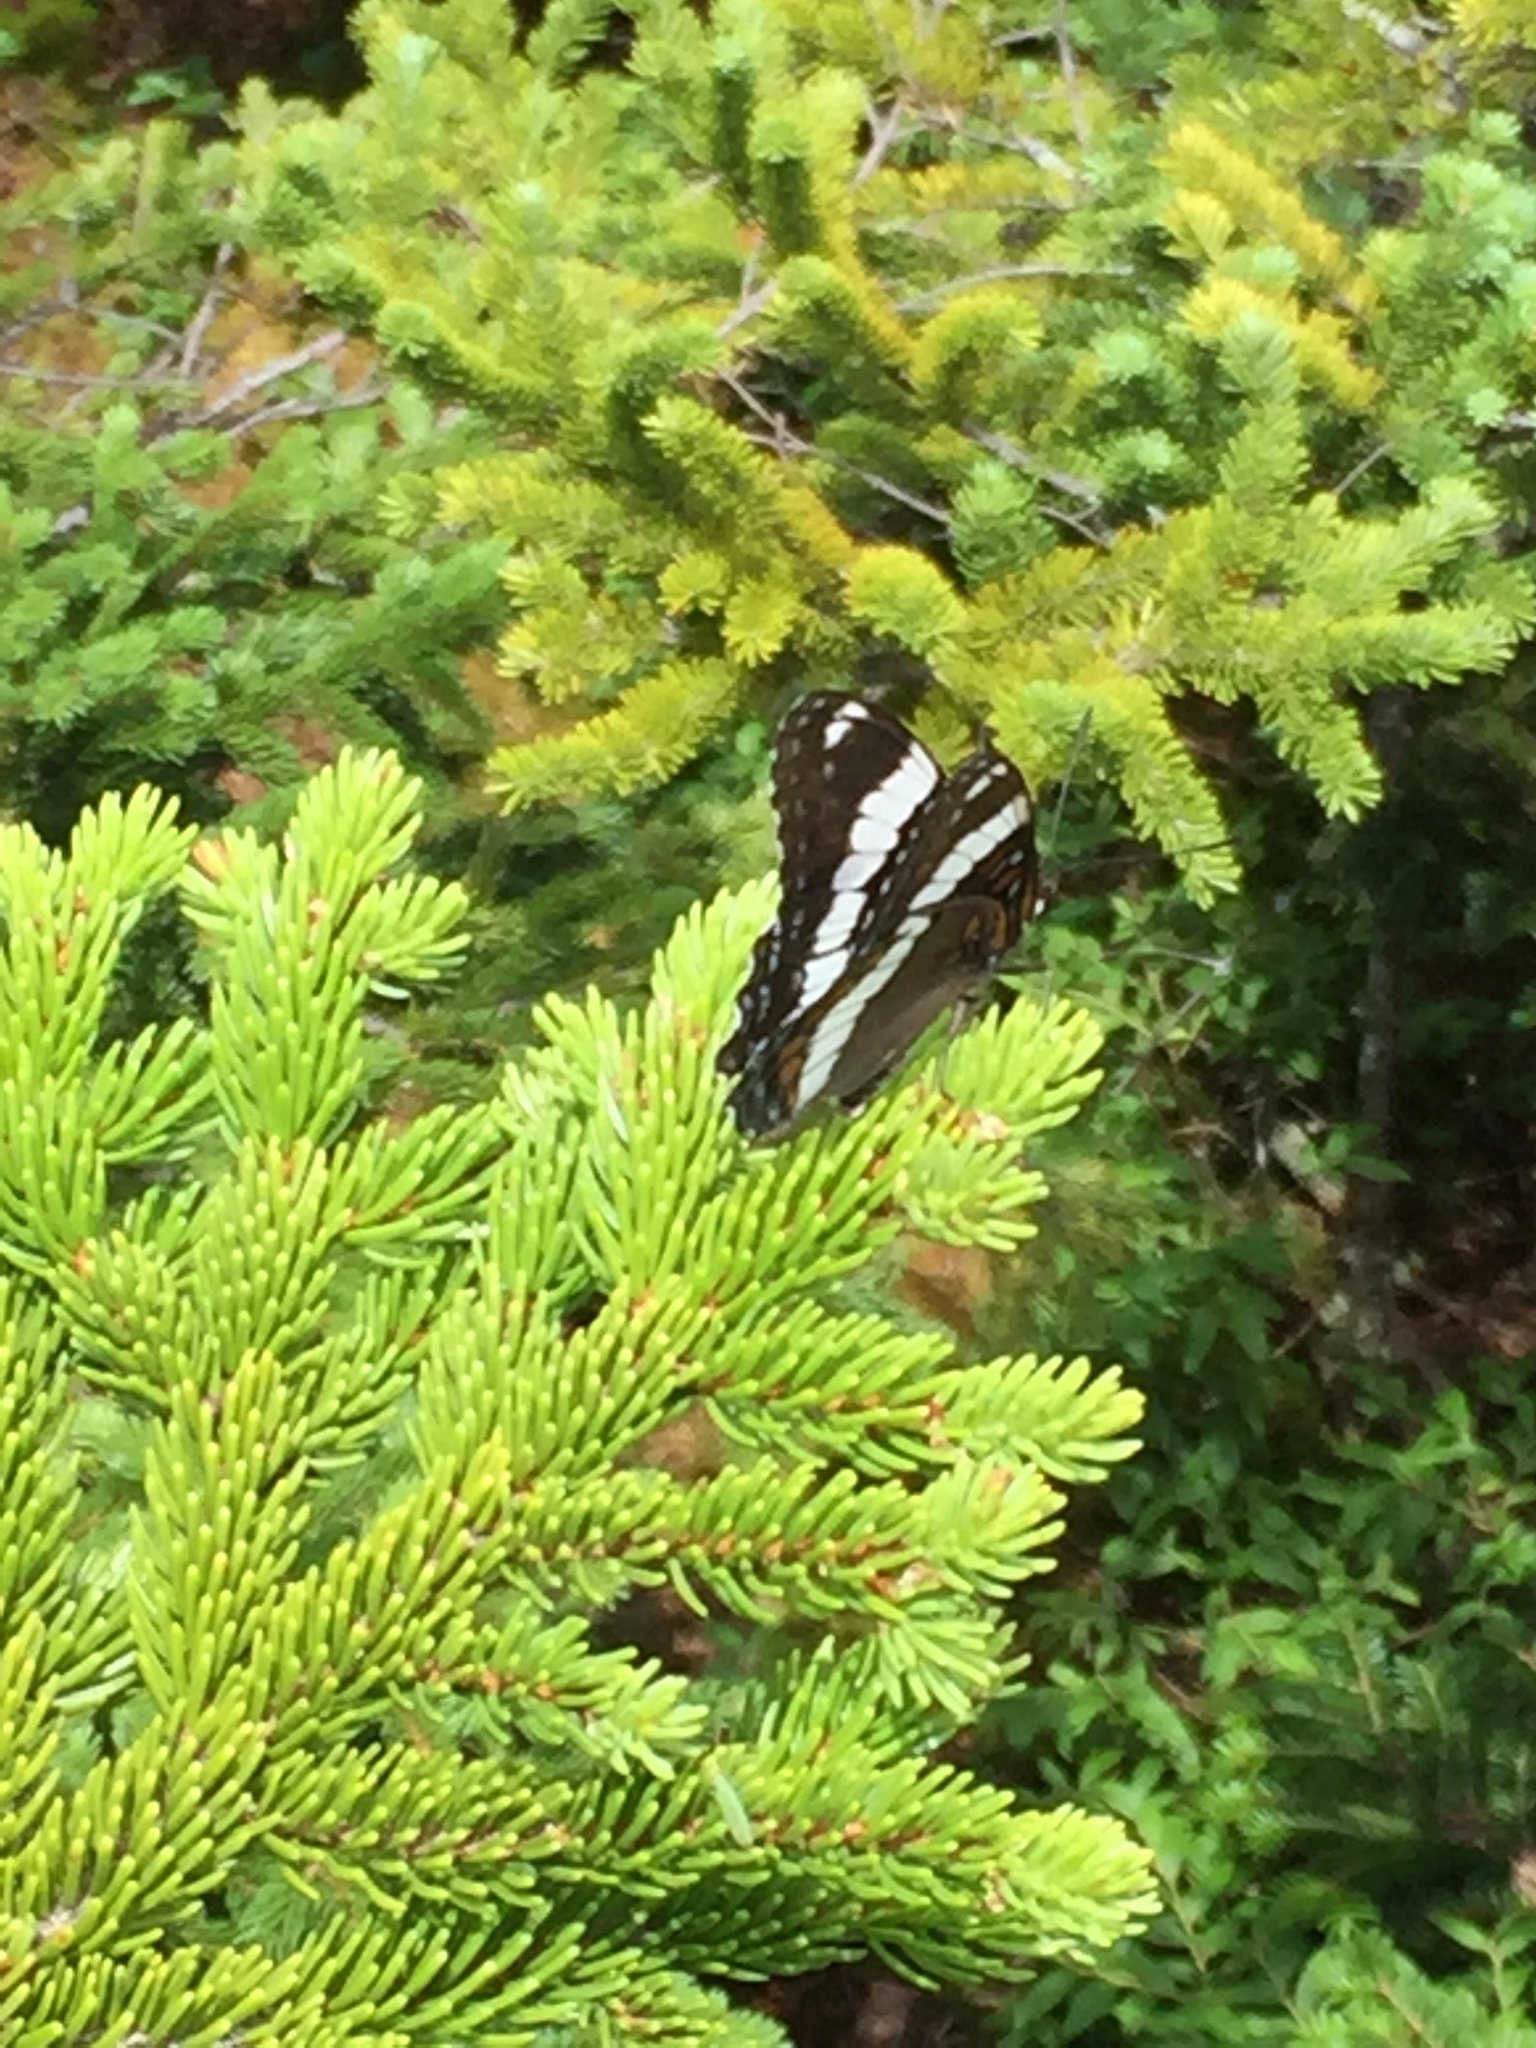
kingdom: Animalia
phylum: Arthropoda
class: Insecta
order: Lepidoptera
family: Nymphalidae
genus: Limenitis
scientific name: Limenitis arthemis
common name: Red-spotted admiral
